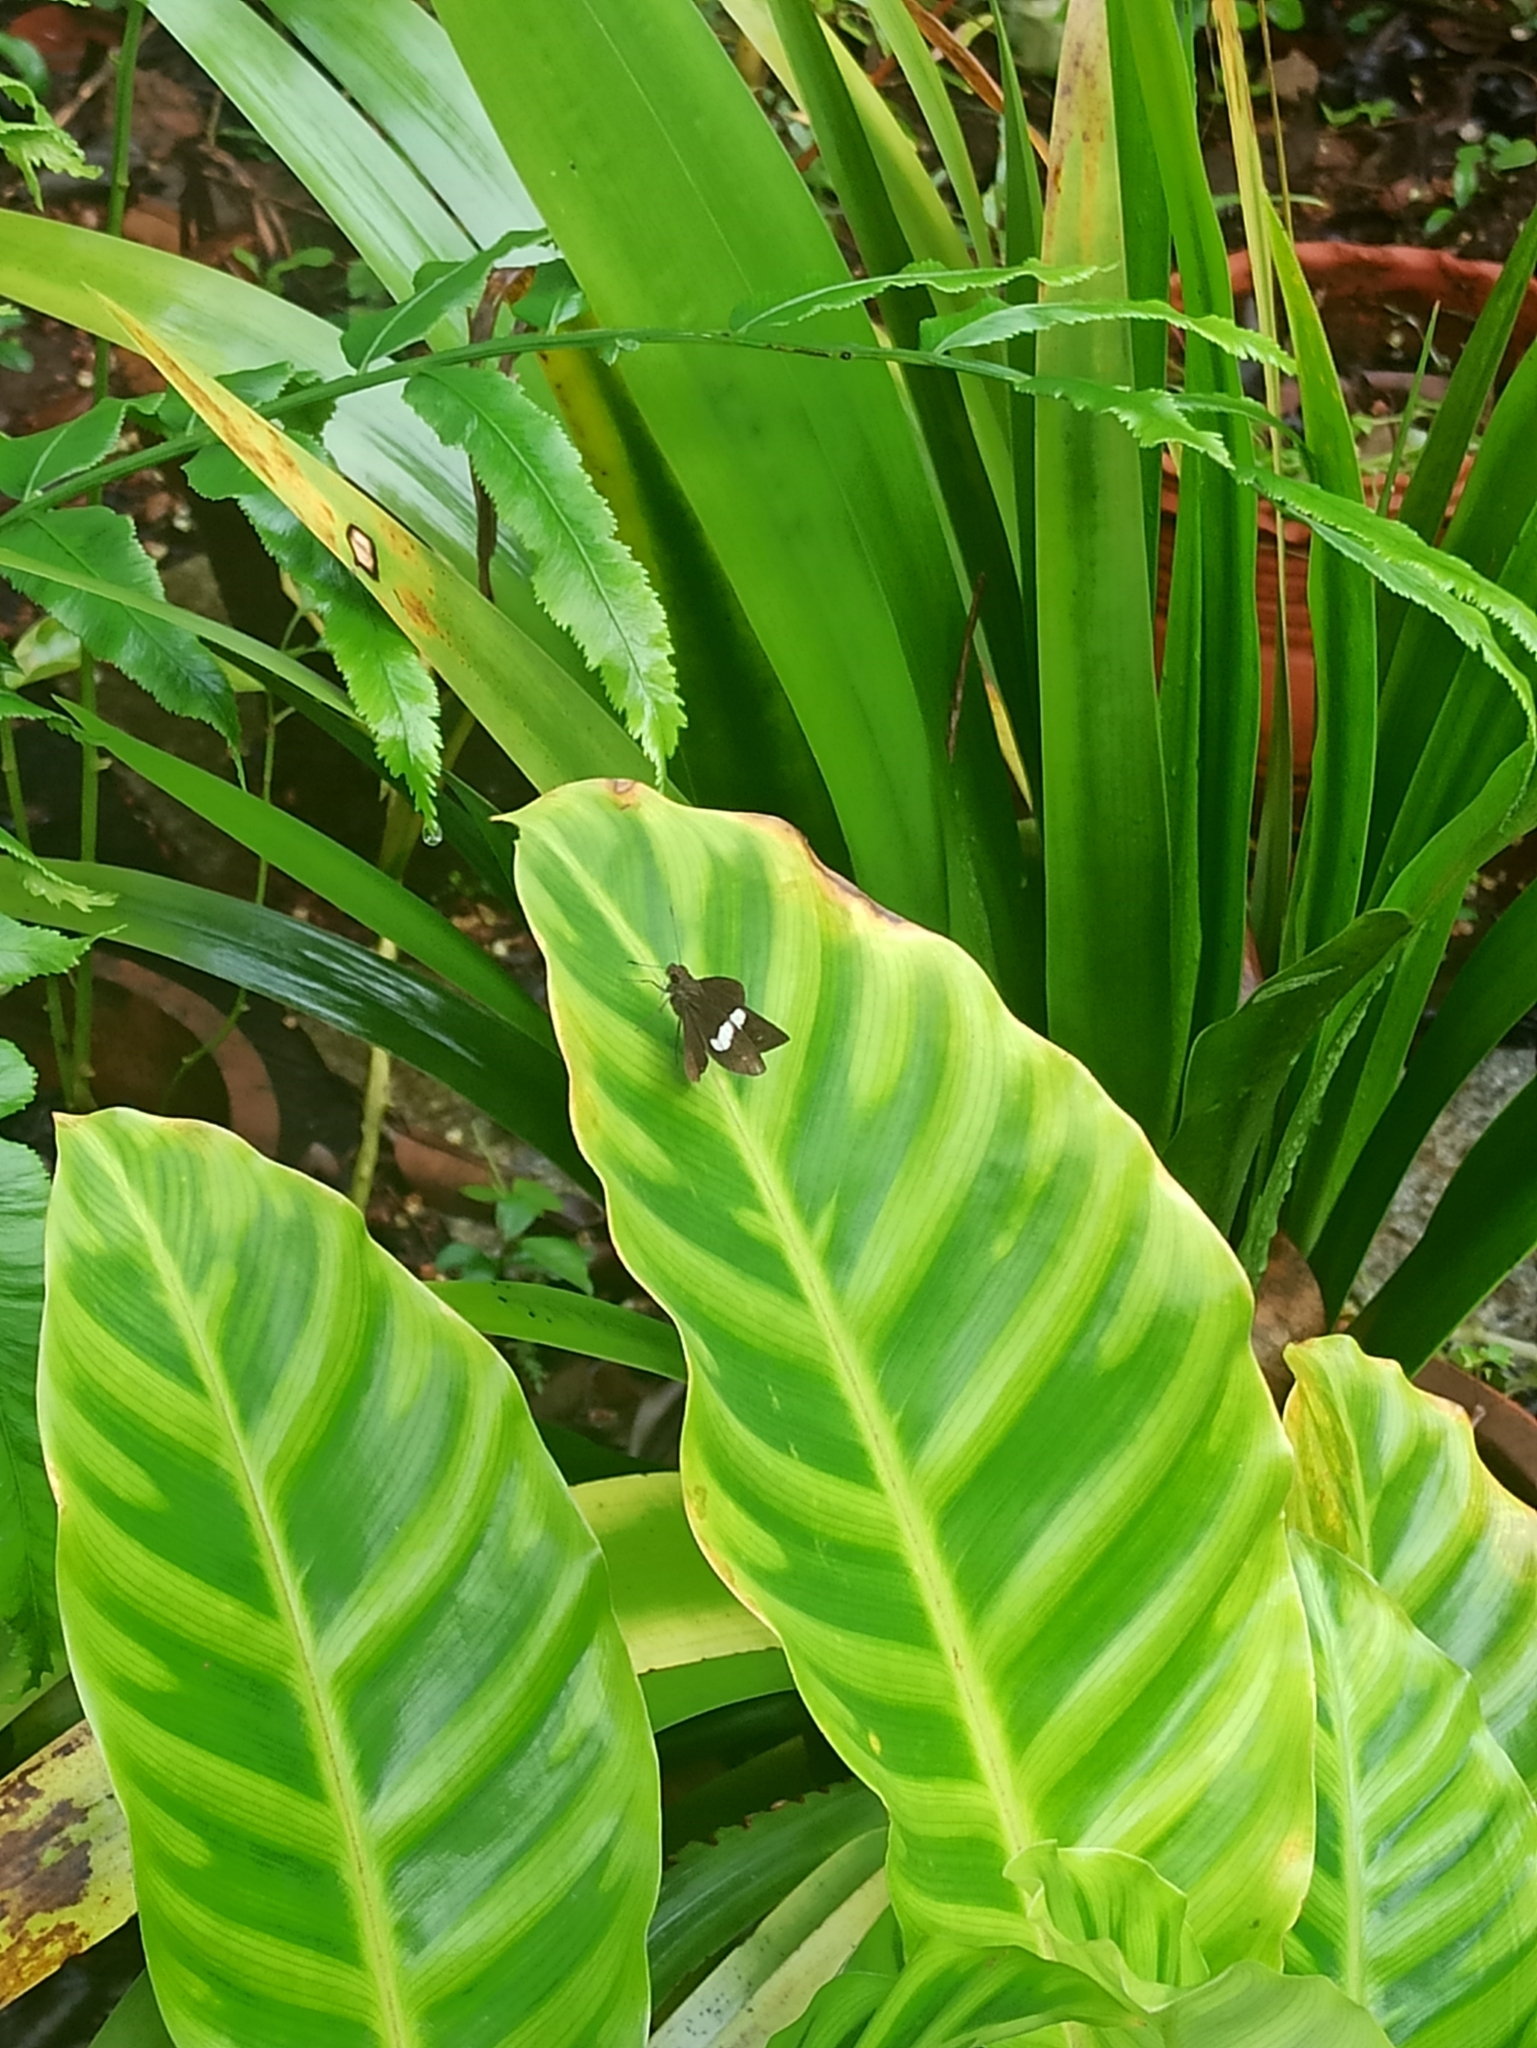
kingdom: Animalia
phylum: Arthropoda
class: Insecta
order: Lepidoptera
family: Hesperiidae
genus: Notocrypta
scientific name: Notocrypta paralysos
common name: Common banded demon
